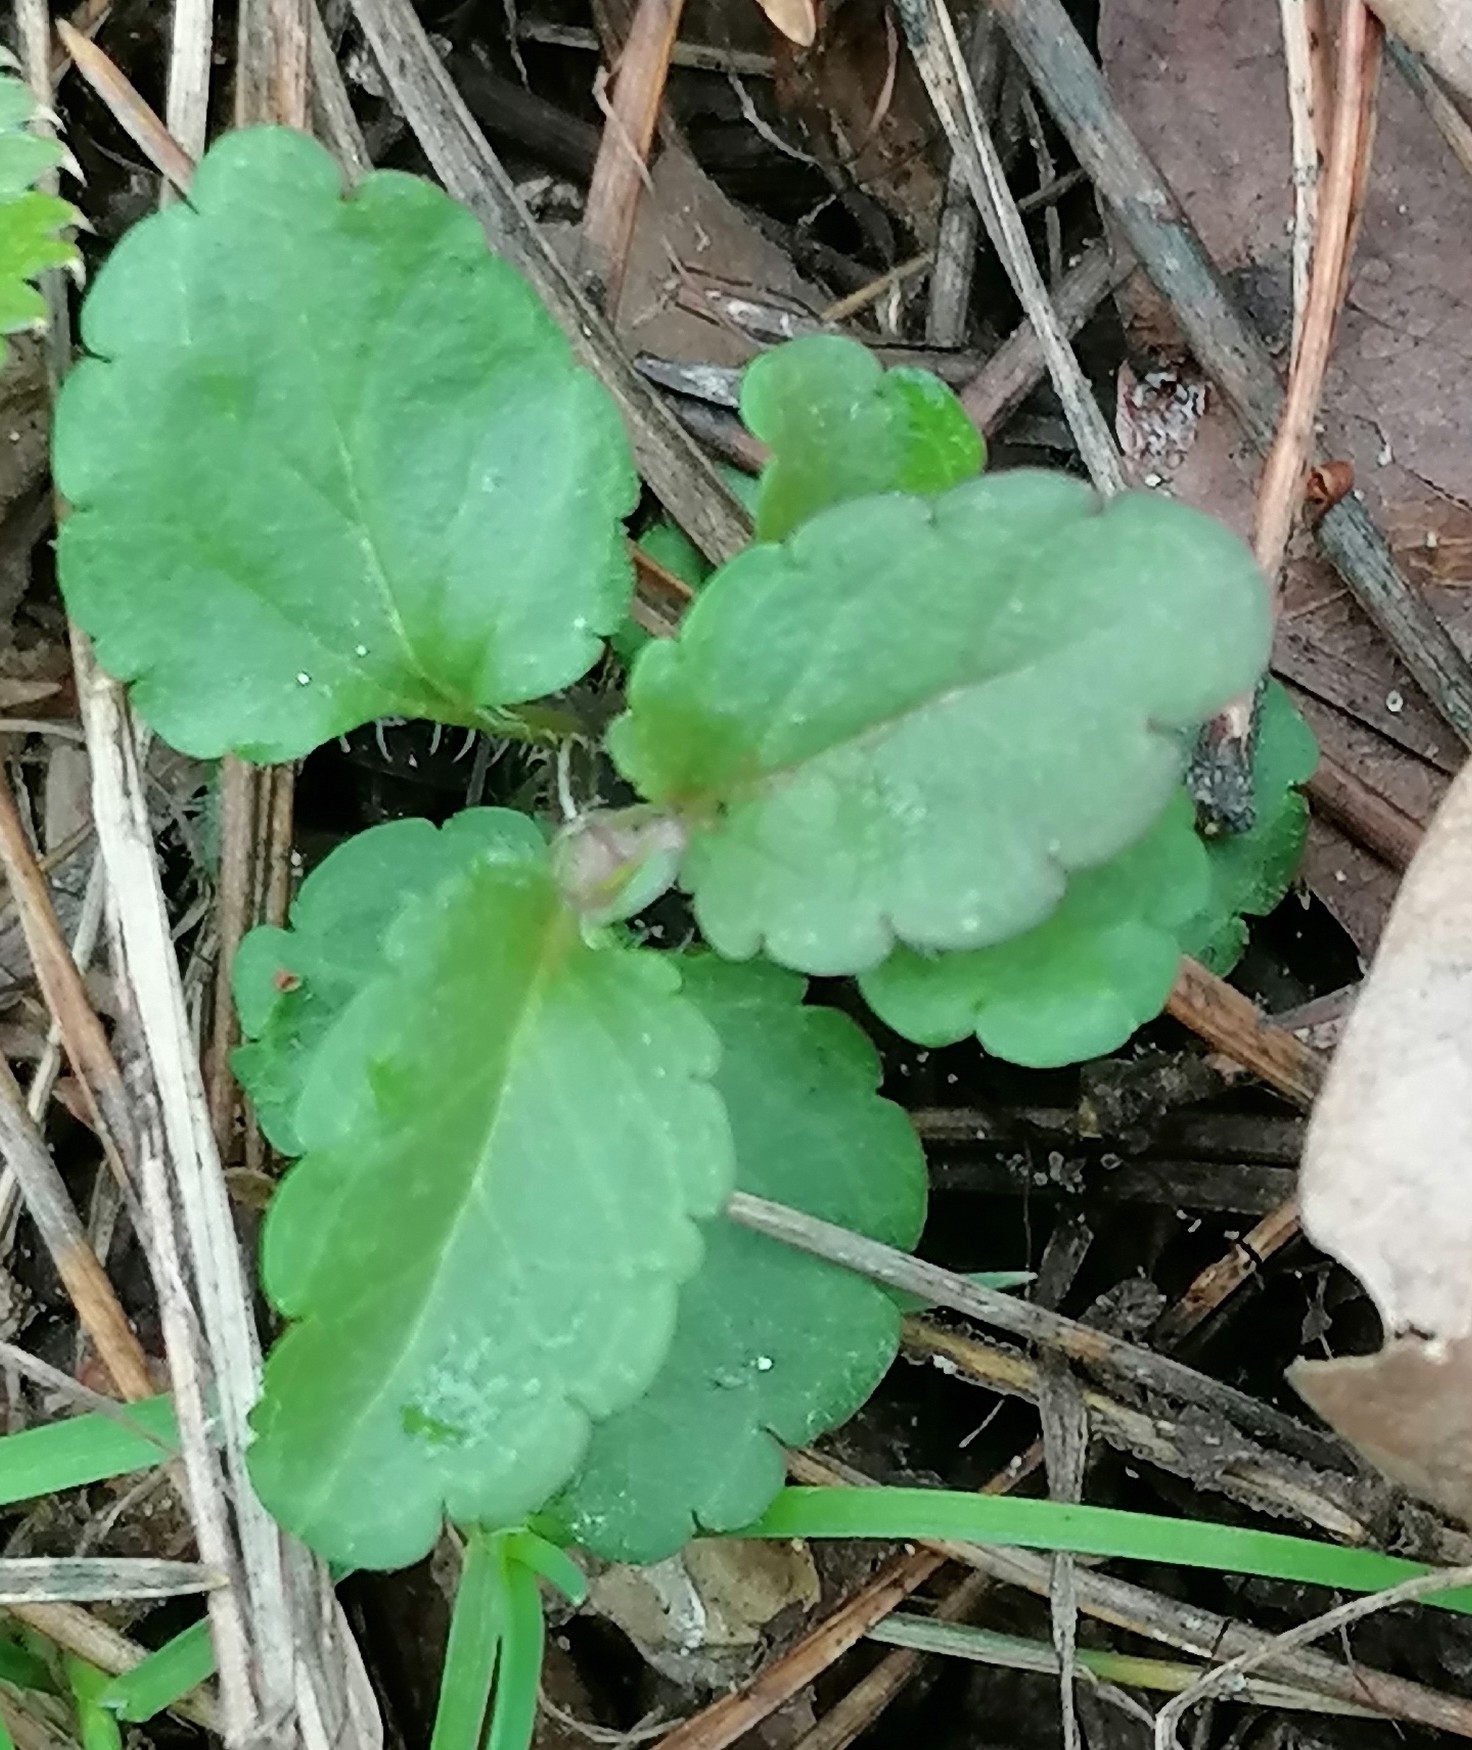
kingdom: Plantae
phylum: Tracheophyta
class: Magnoliopsida
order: Lamiales
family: Plantaginaceae
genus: Veronica
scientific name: Veronica chamaedrys
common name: Germander speedwell
